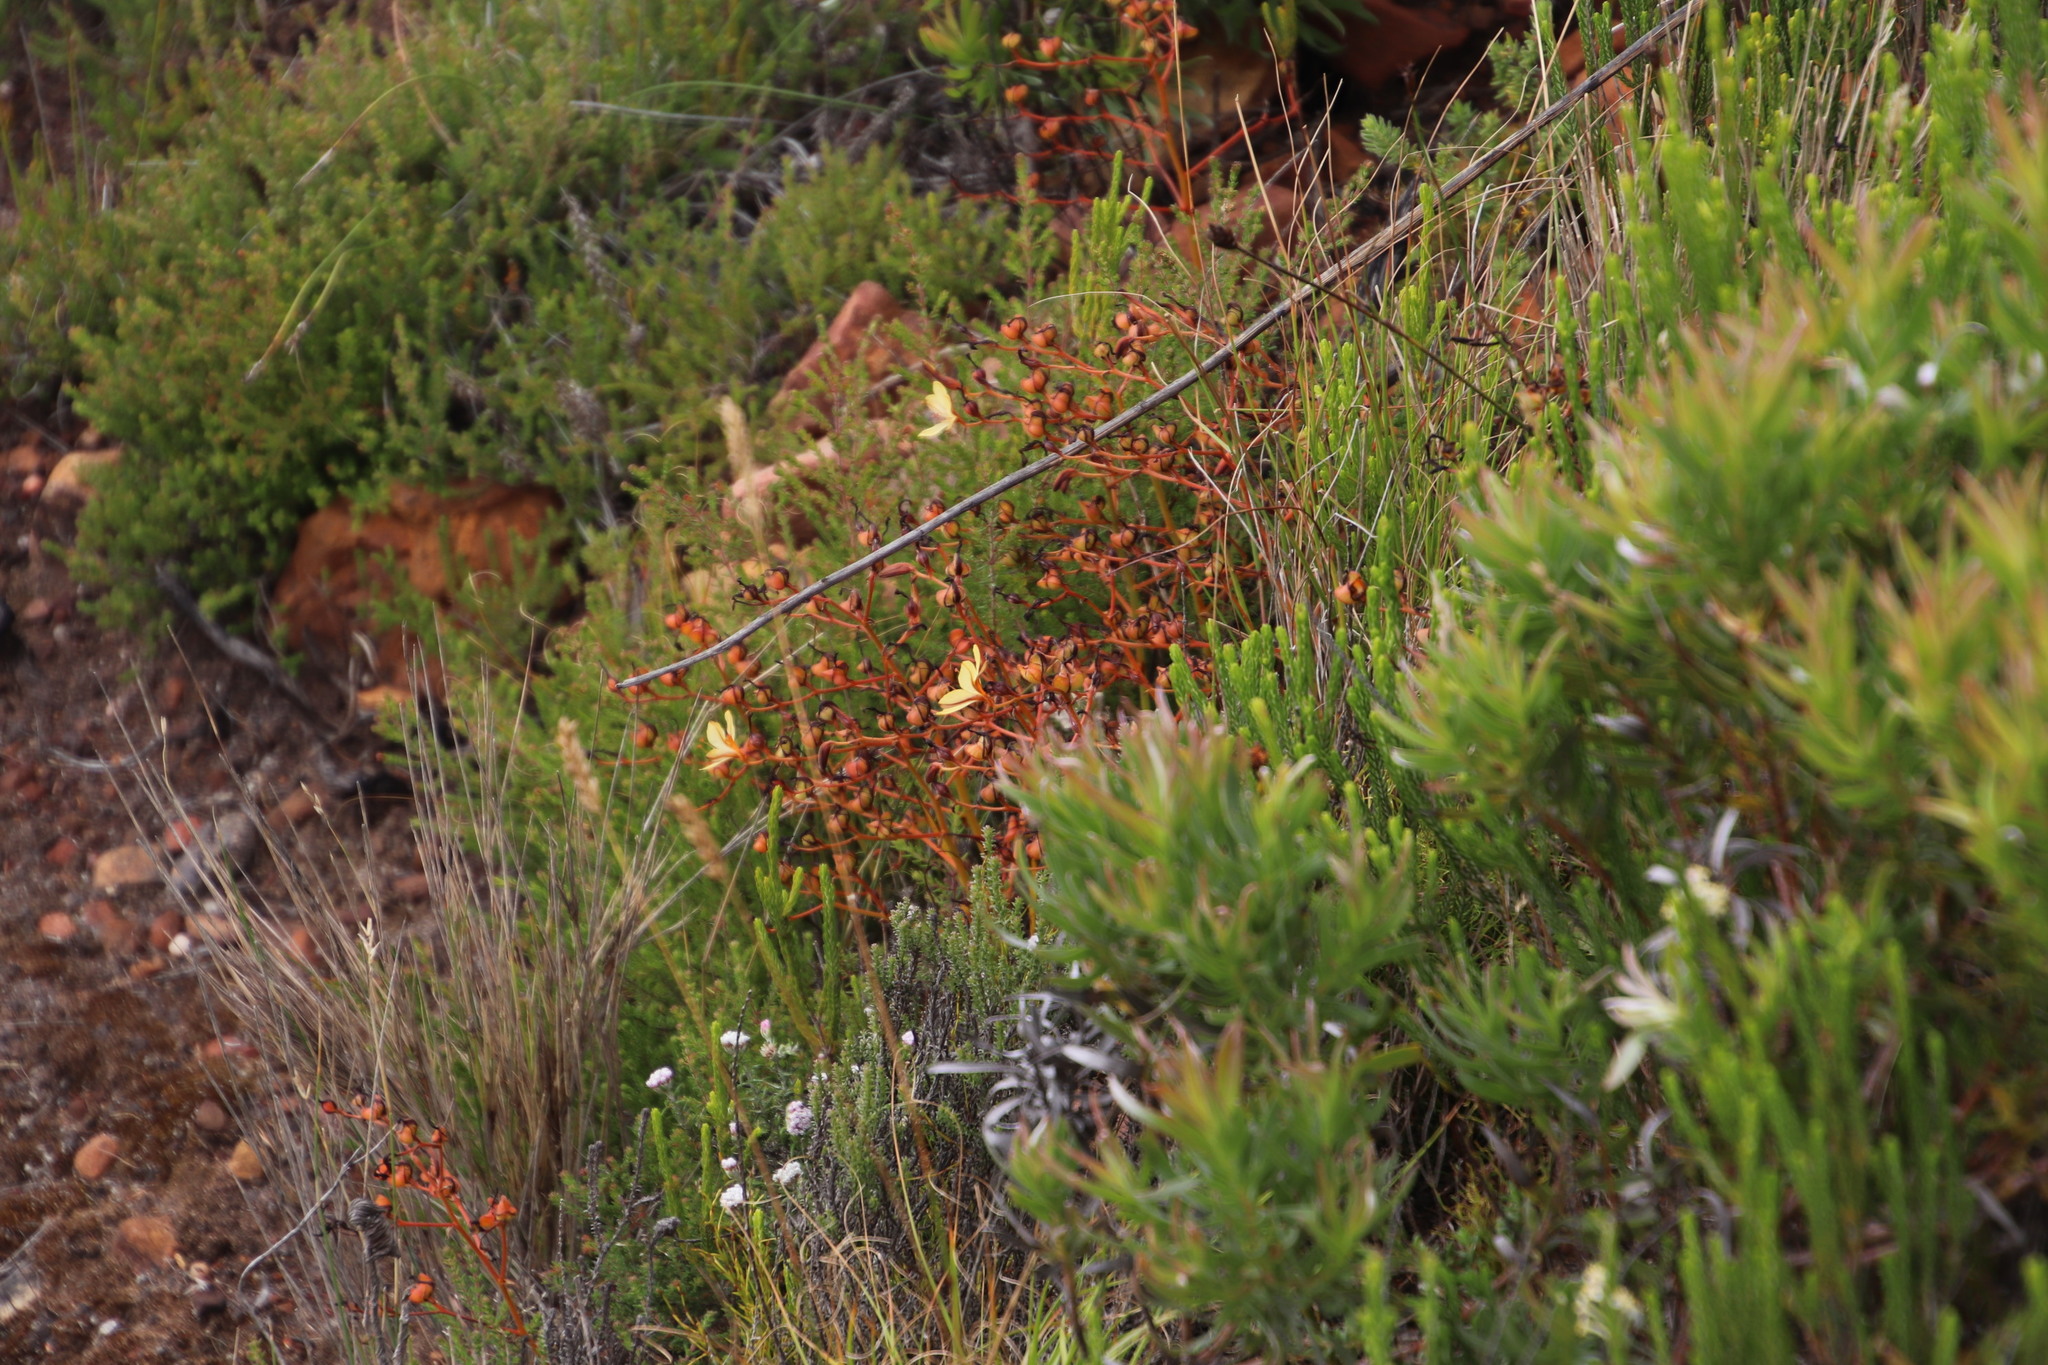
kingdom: Plantae
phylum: Tracheophyta
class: Liliopsida
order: Commelinales
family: Haemodoraceae
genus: Wachendorfia
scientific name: Wachendorfia paniculata
